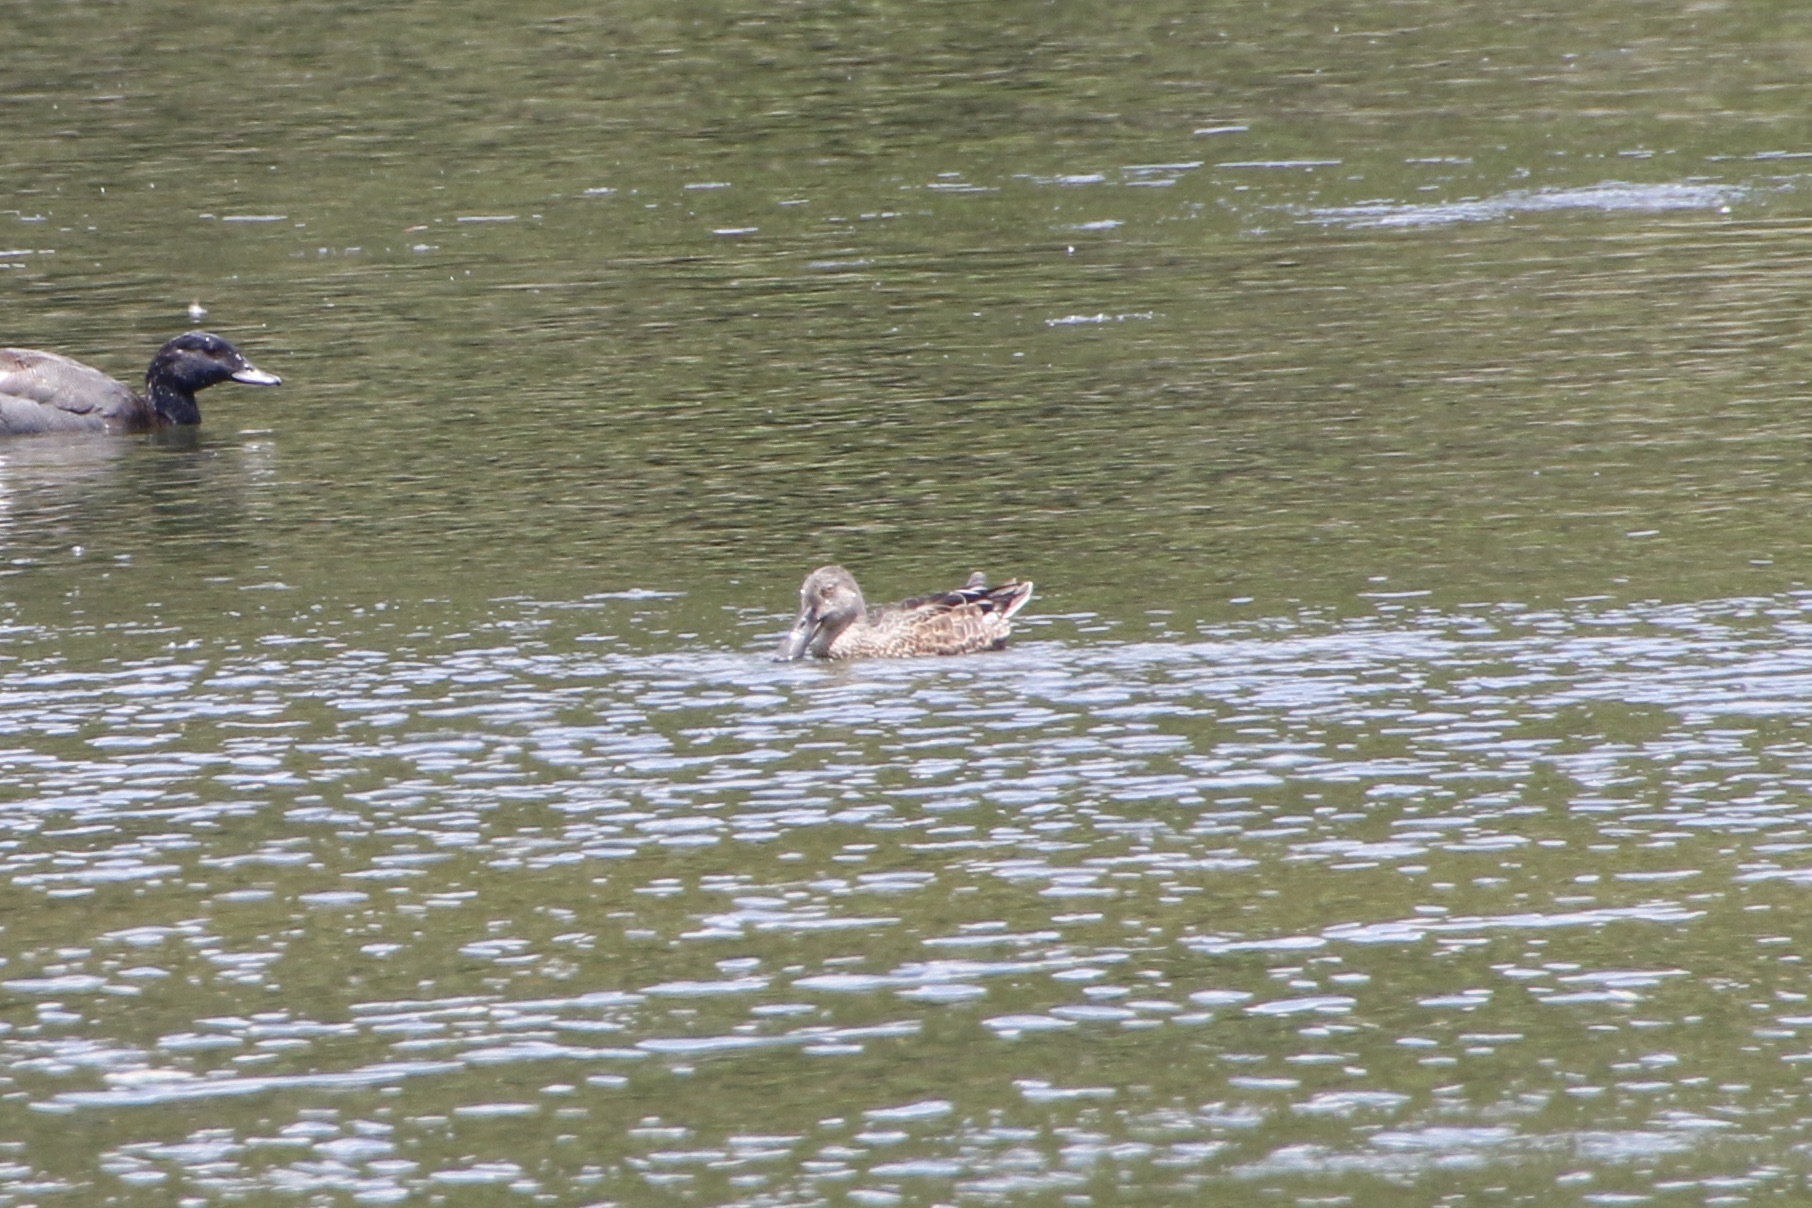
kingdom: Animalia
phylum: Chordata
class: Aves
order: Anseriformes
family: Anatidae
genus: Spatula
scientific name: Spatula rhynchotis
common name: Australian shoveler
